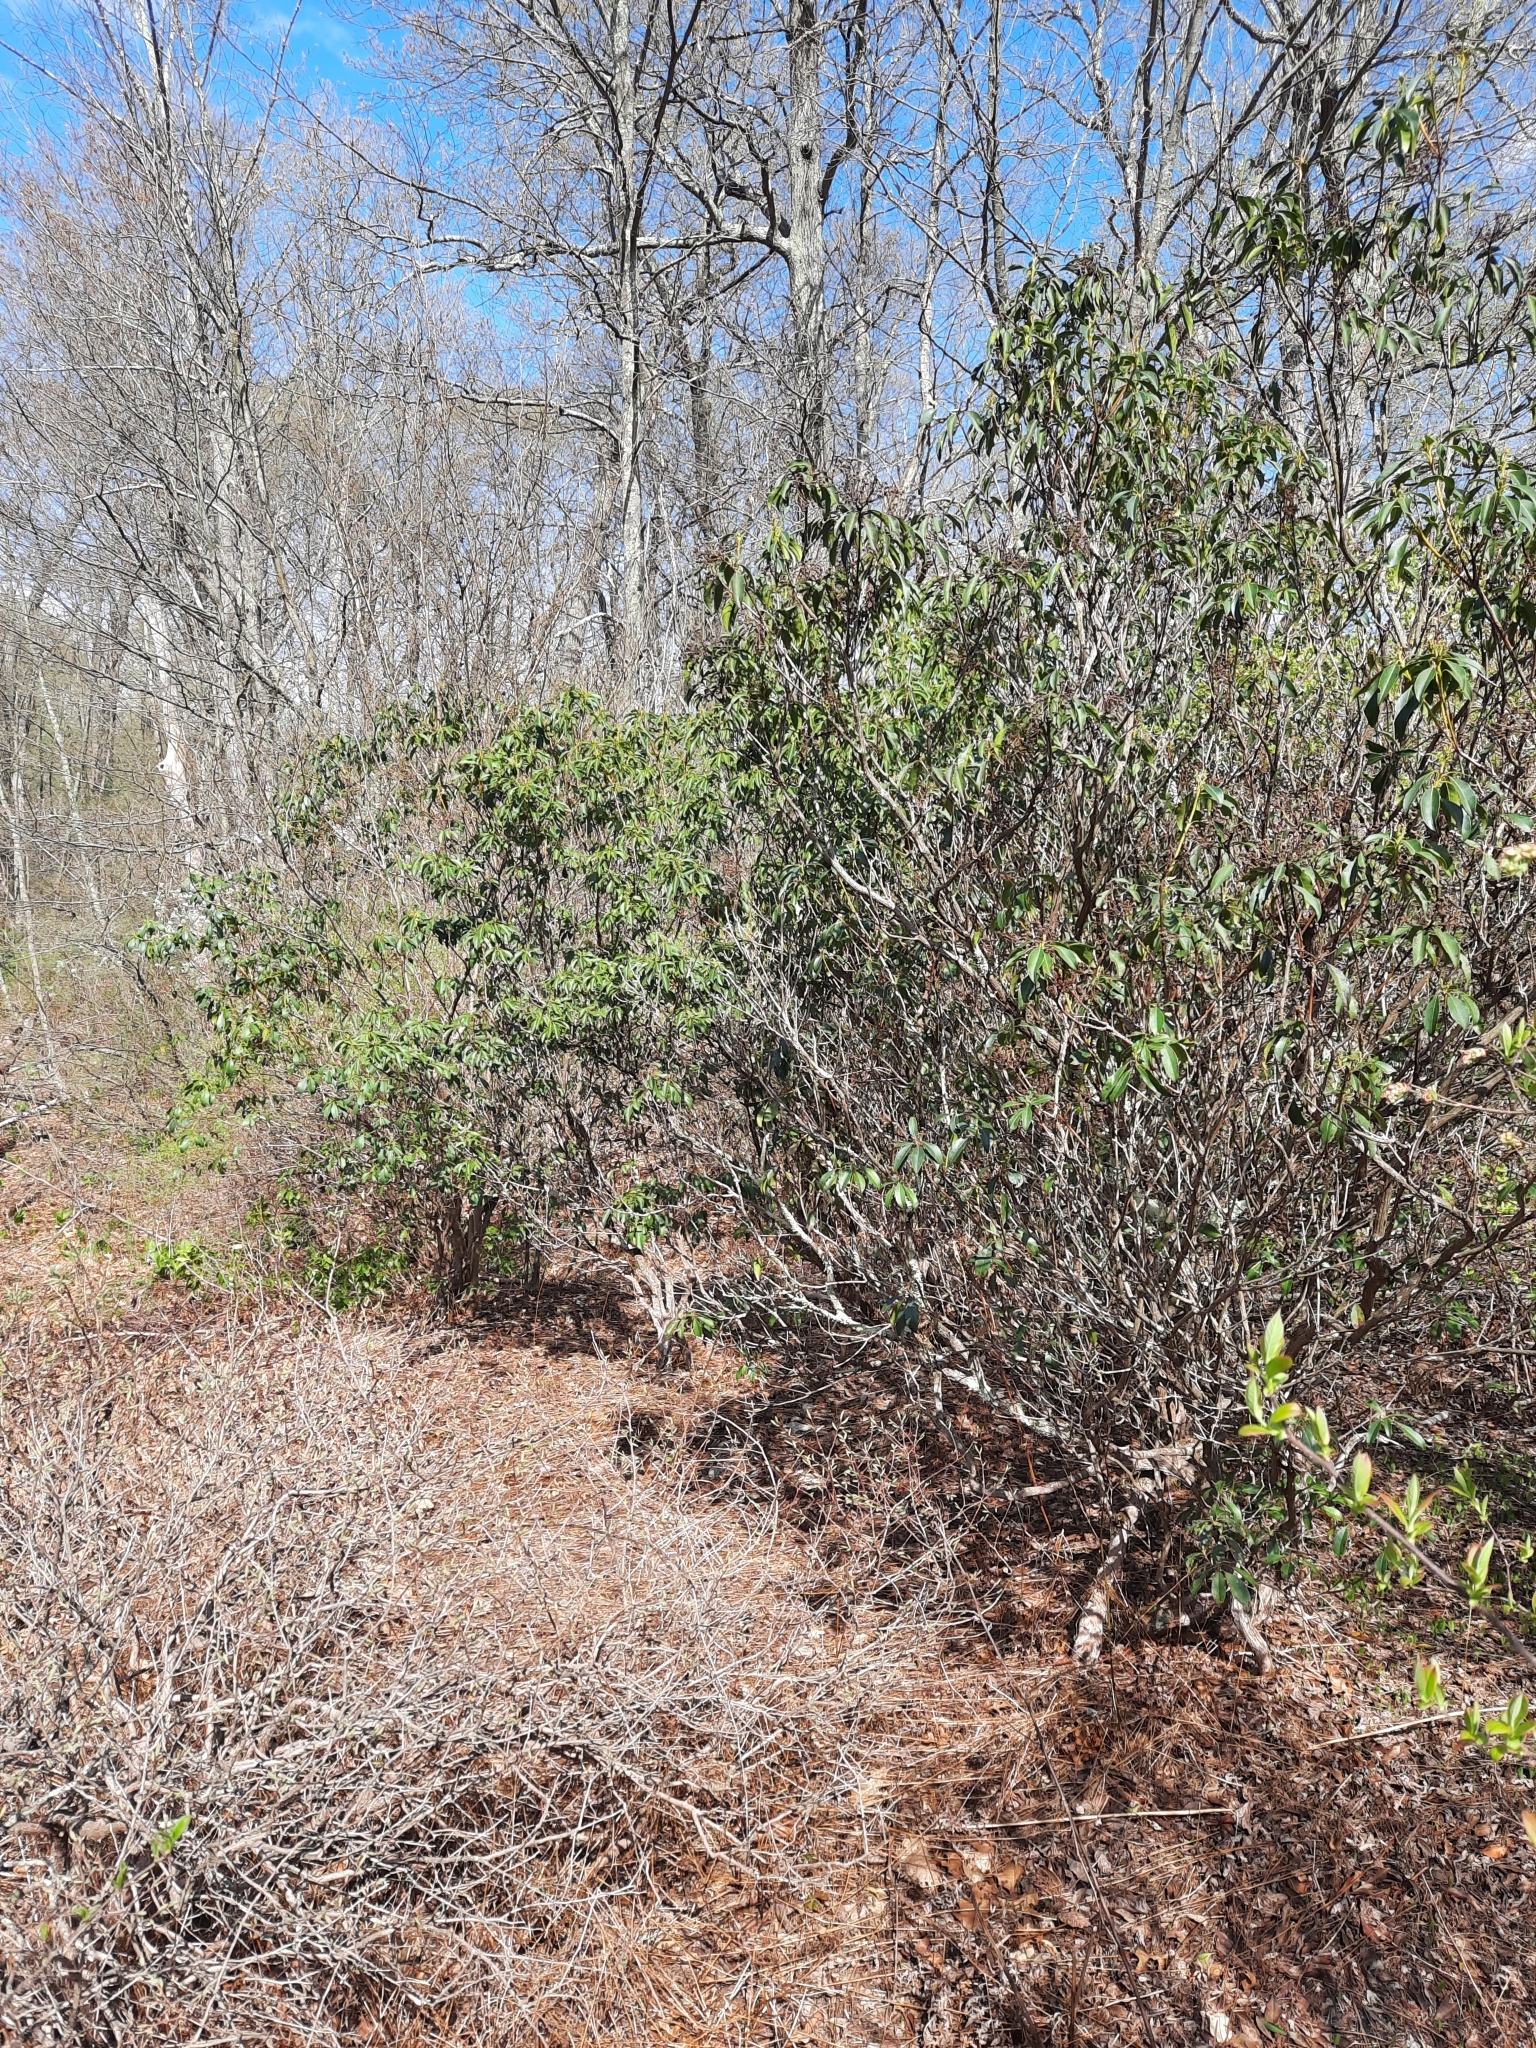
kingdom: Plantae
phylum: Tracheophyta
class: Magnoliopsida
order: Ericales
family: Ericaceae
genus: Kalmia
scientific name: Kalmia latifolia
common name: Mountain-laurel
